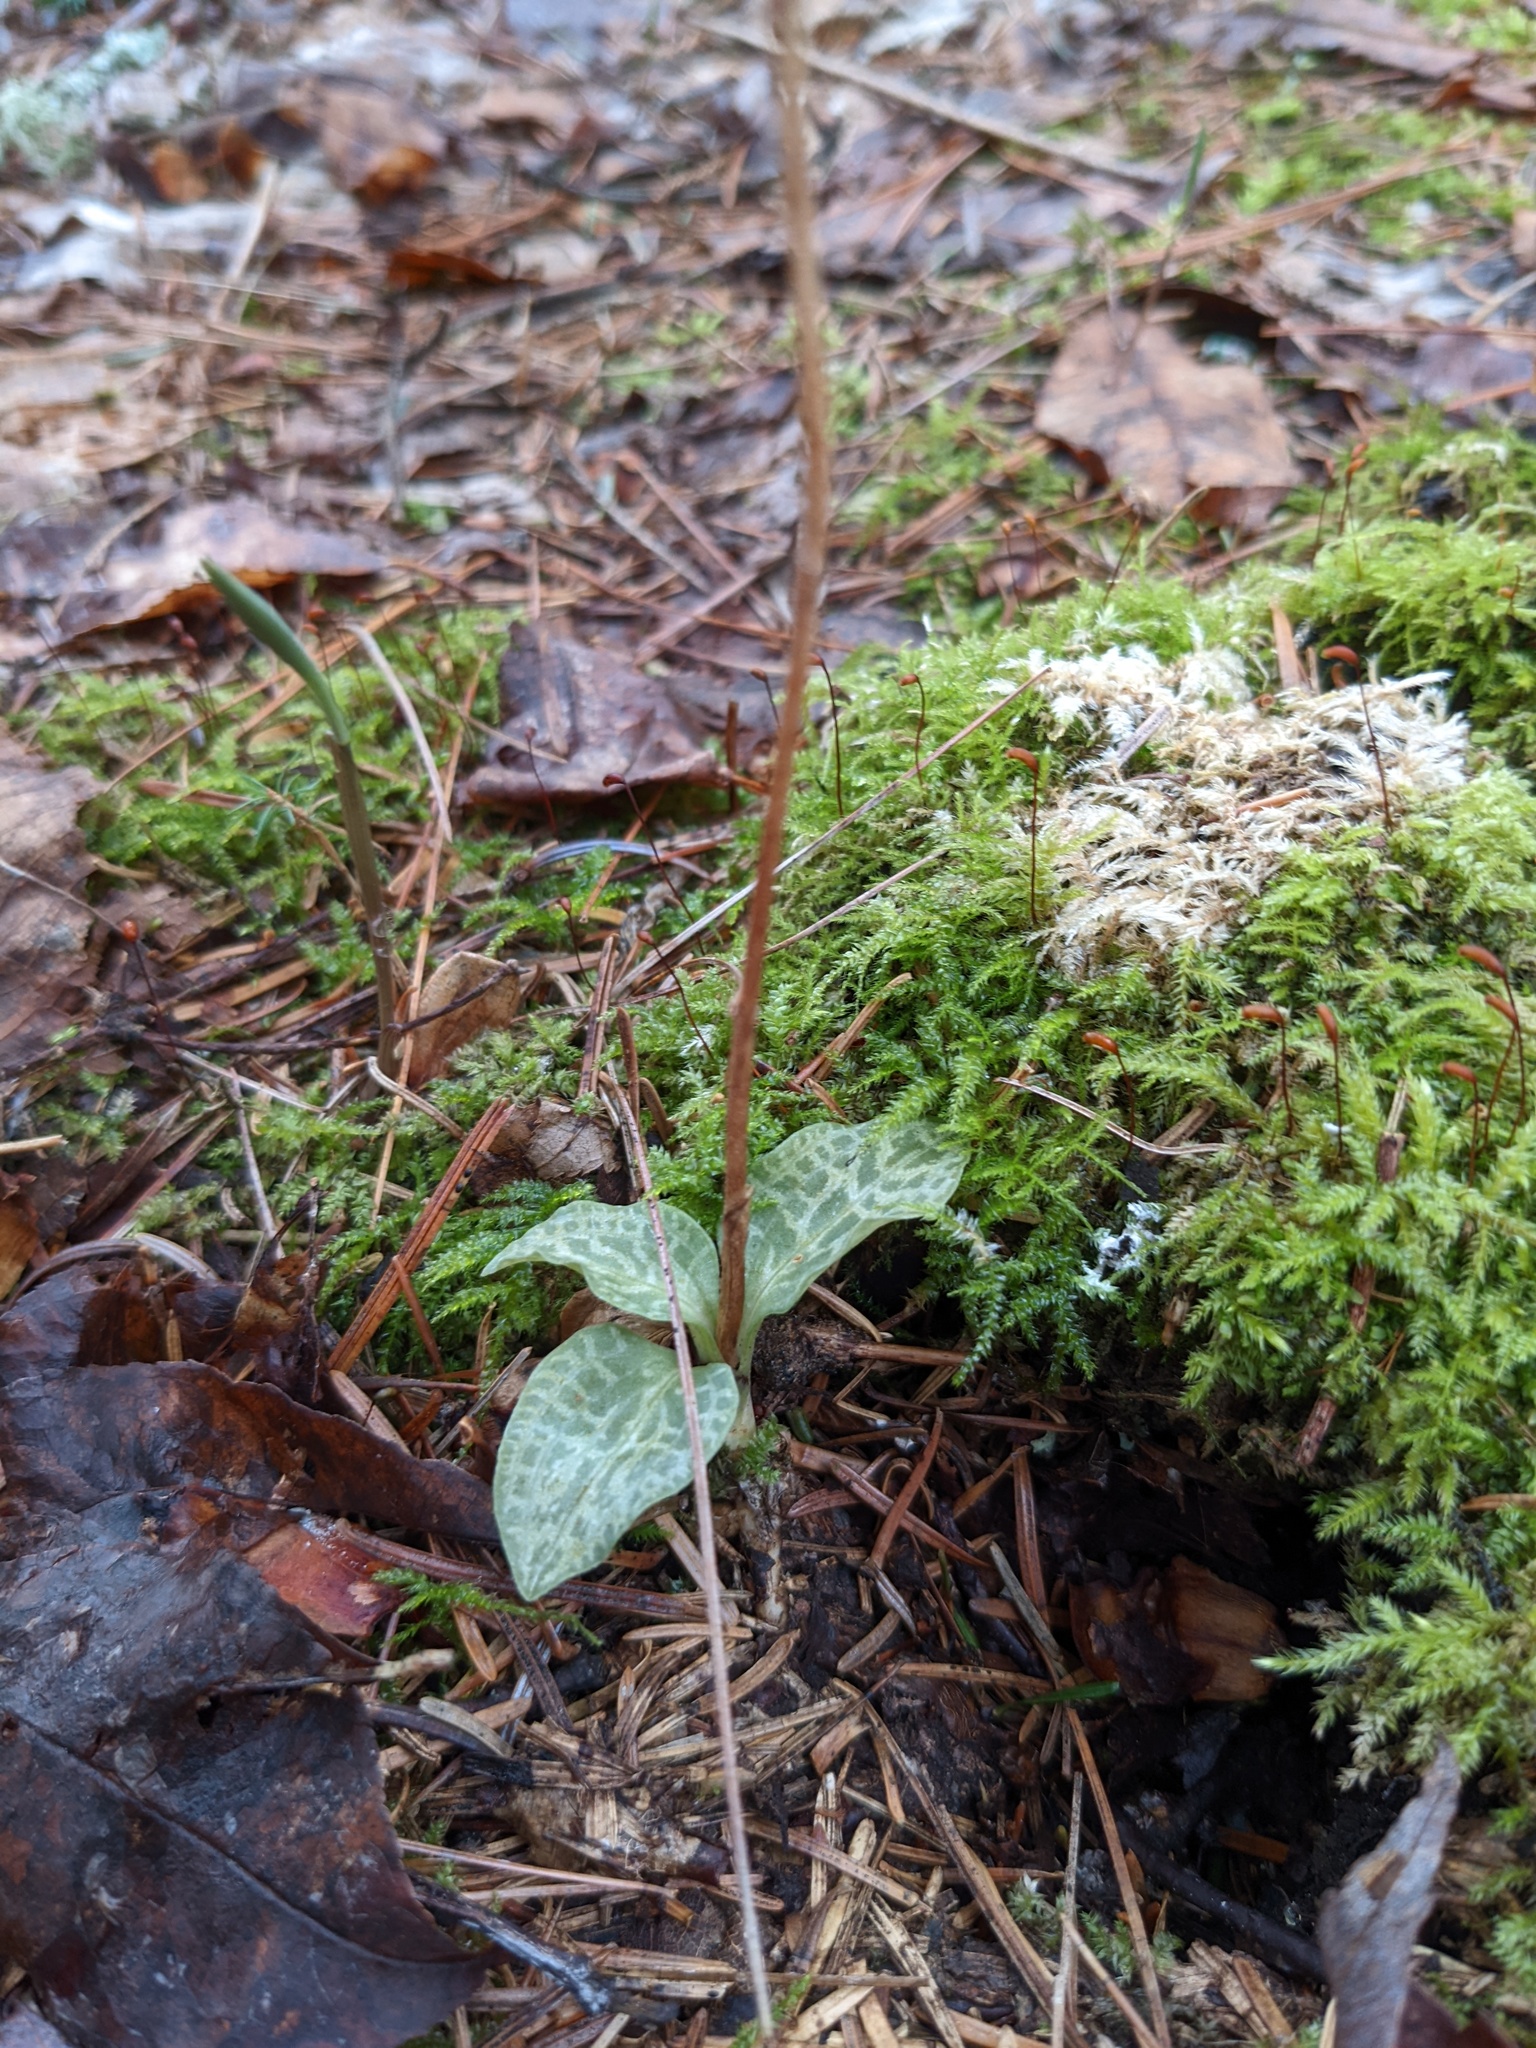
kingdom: Plantae
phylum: Tracheophyta
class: Liliopsida
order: Asparagales
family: Orchidaceae
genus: Goodyera
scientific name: Goodyera tesselata
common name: Checkered rattlesnake-plantain
